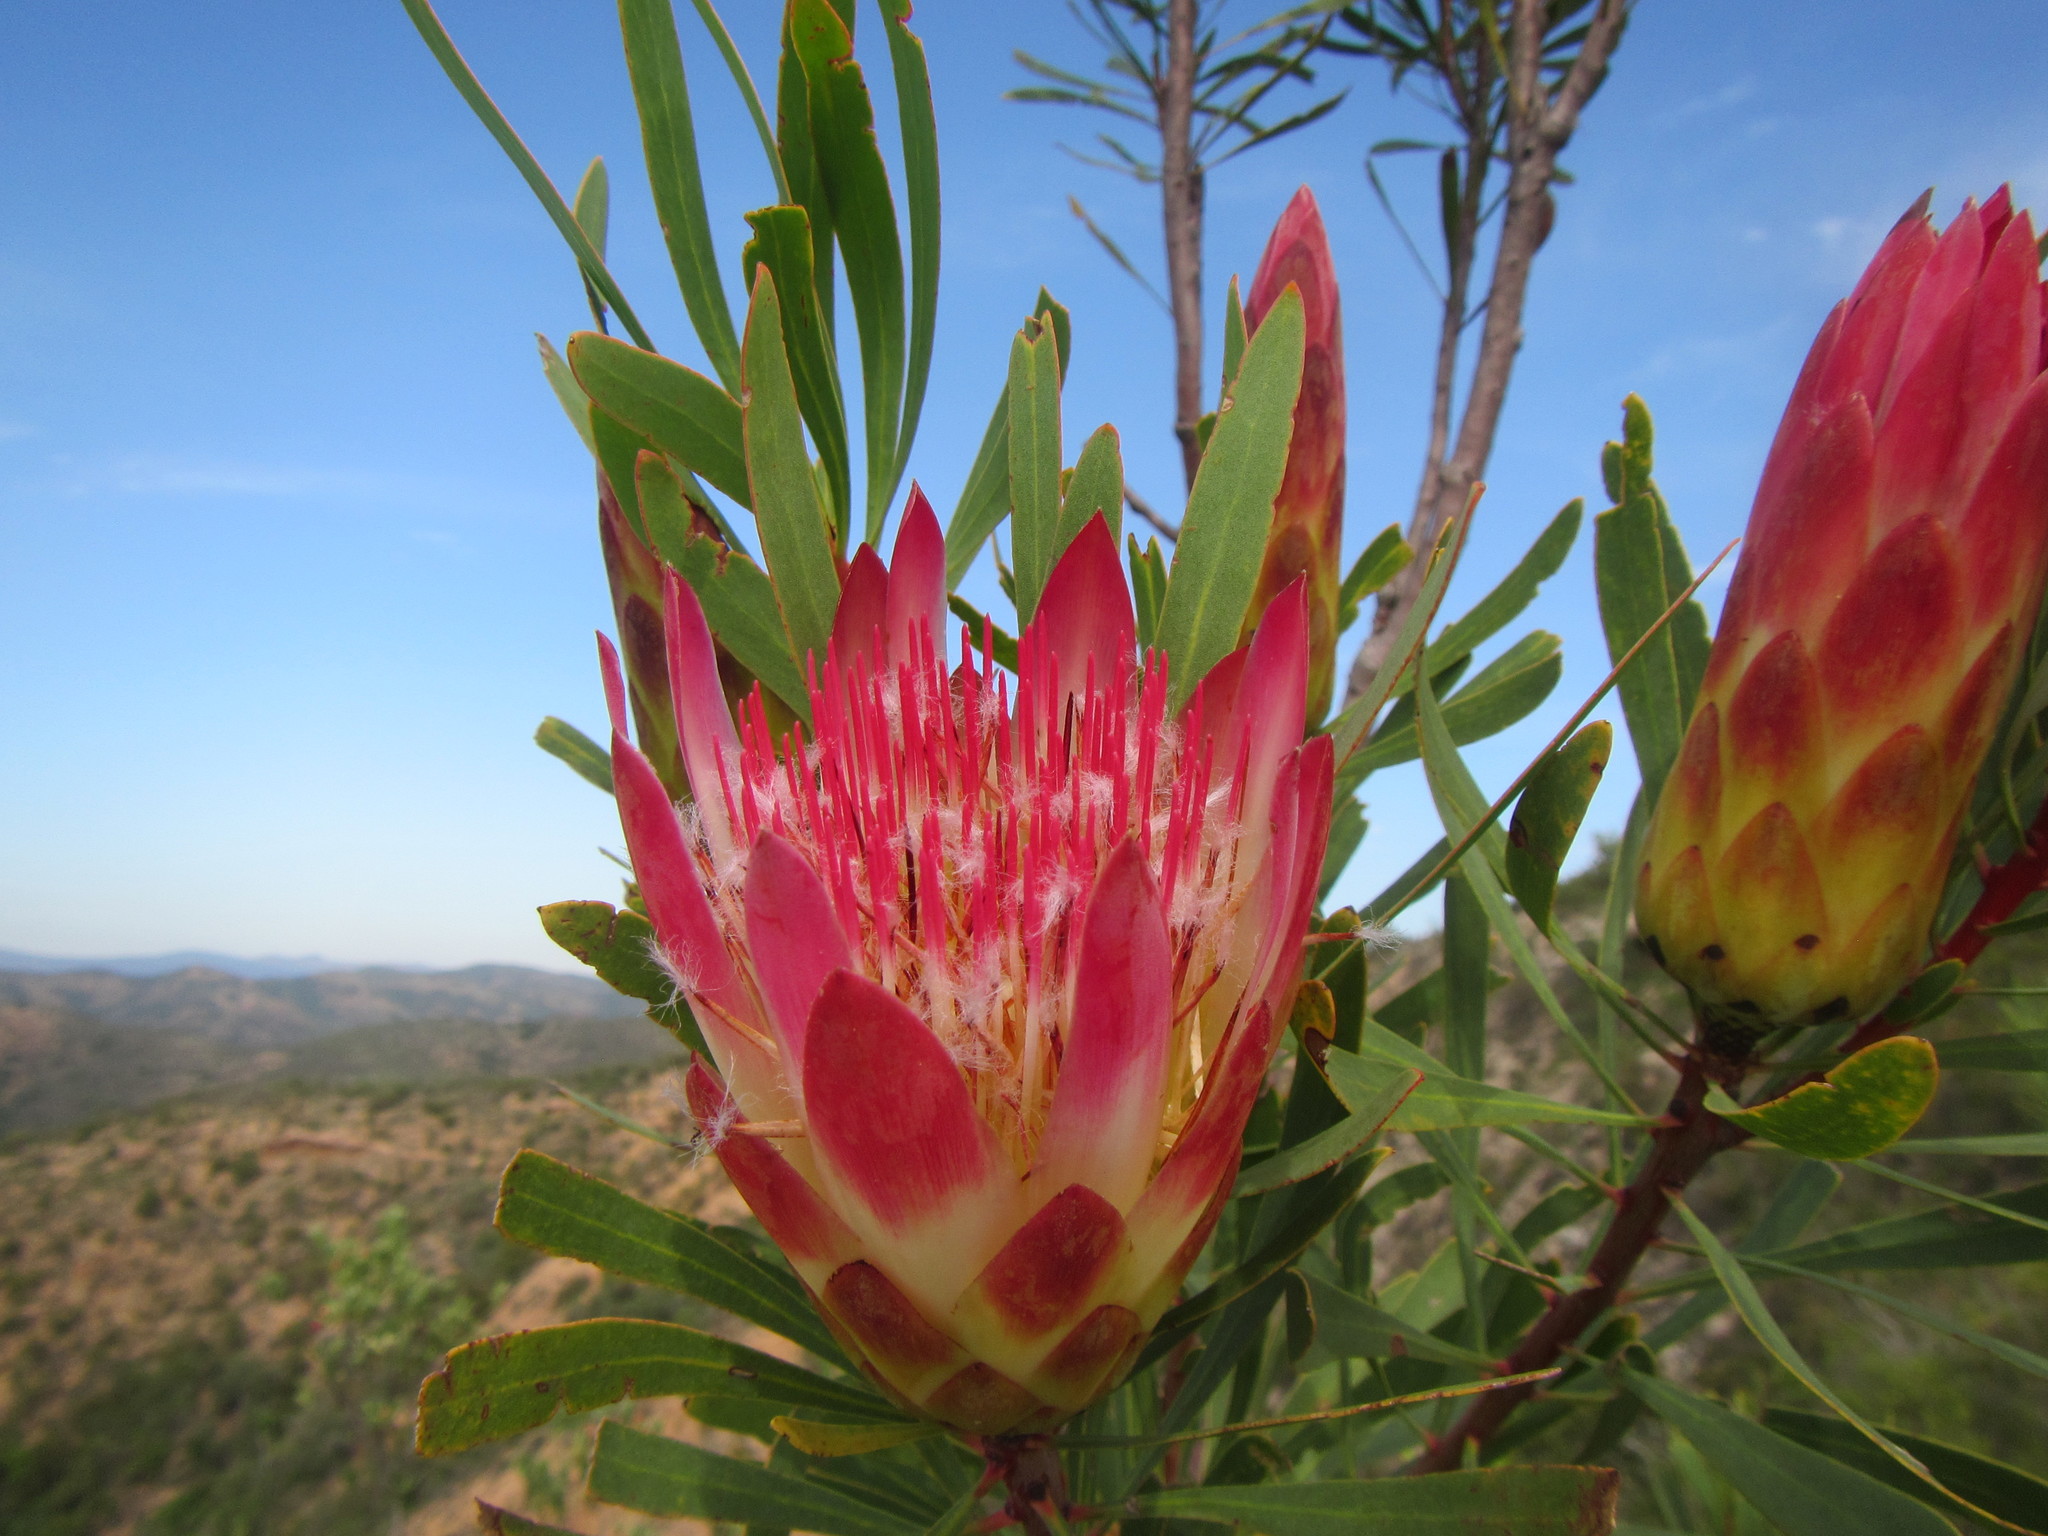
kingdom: Plantae
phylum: Tracheophyta
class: Magnoliopsida
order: Proteales
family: Proteaceae
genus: Protea
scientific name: Protea repens
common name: Sugarbush
